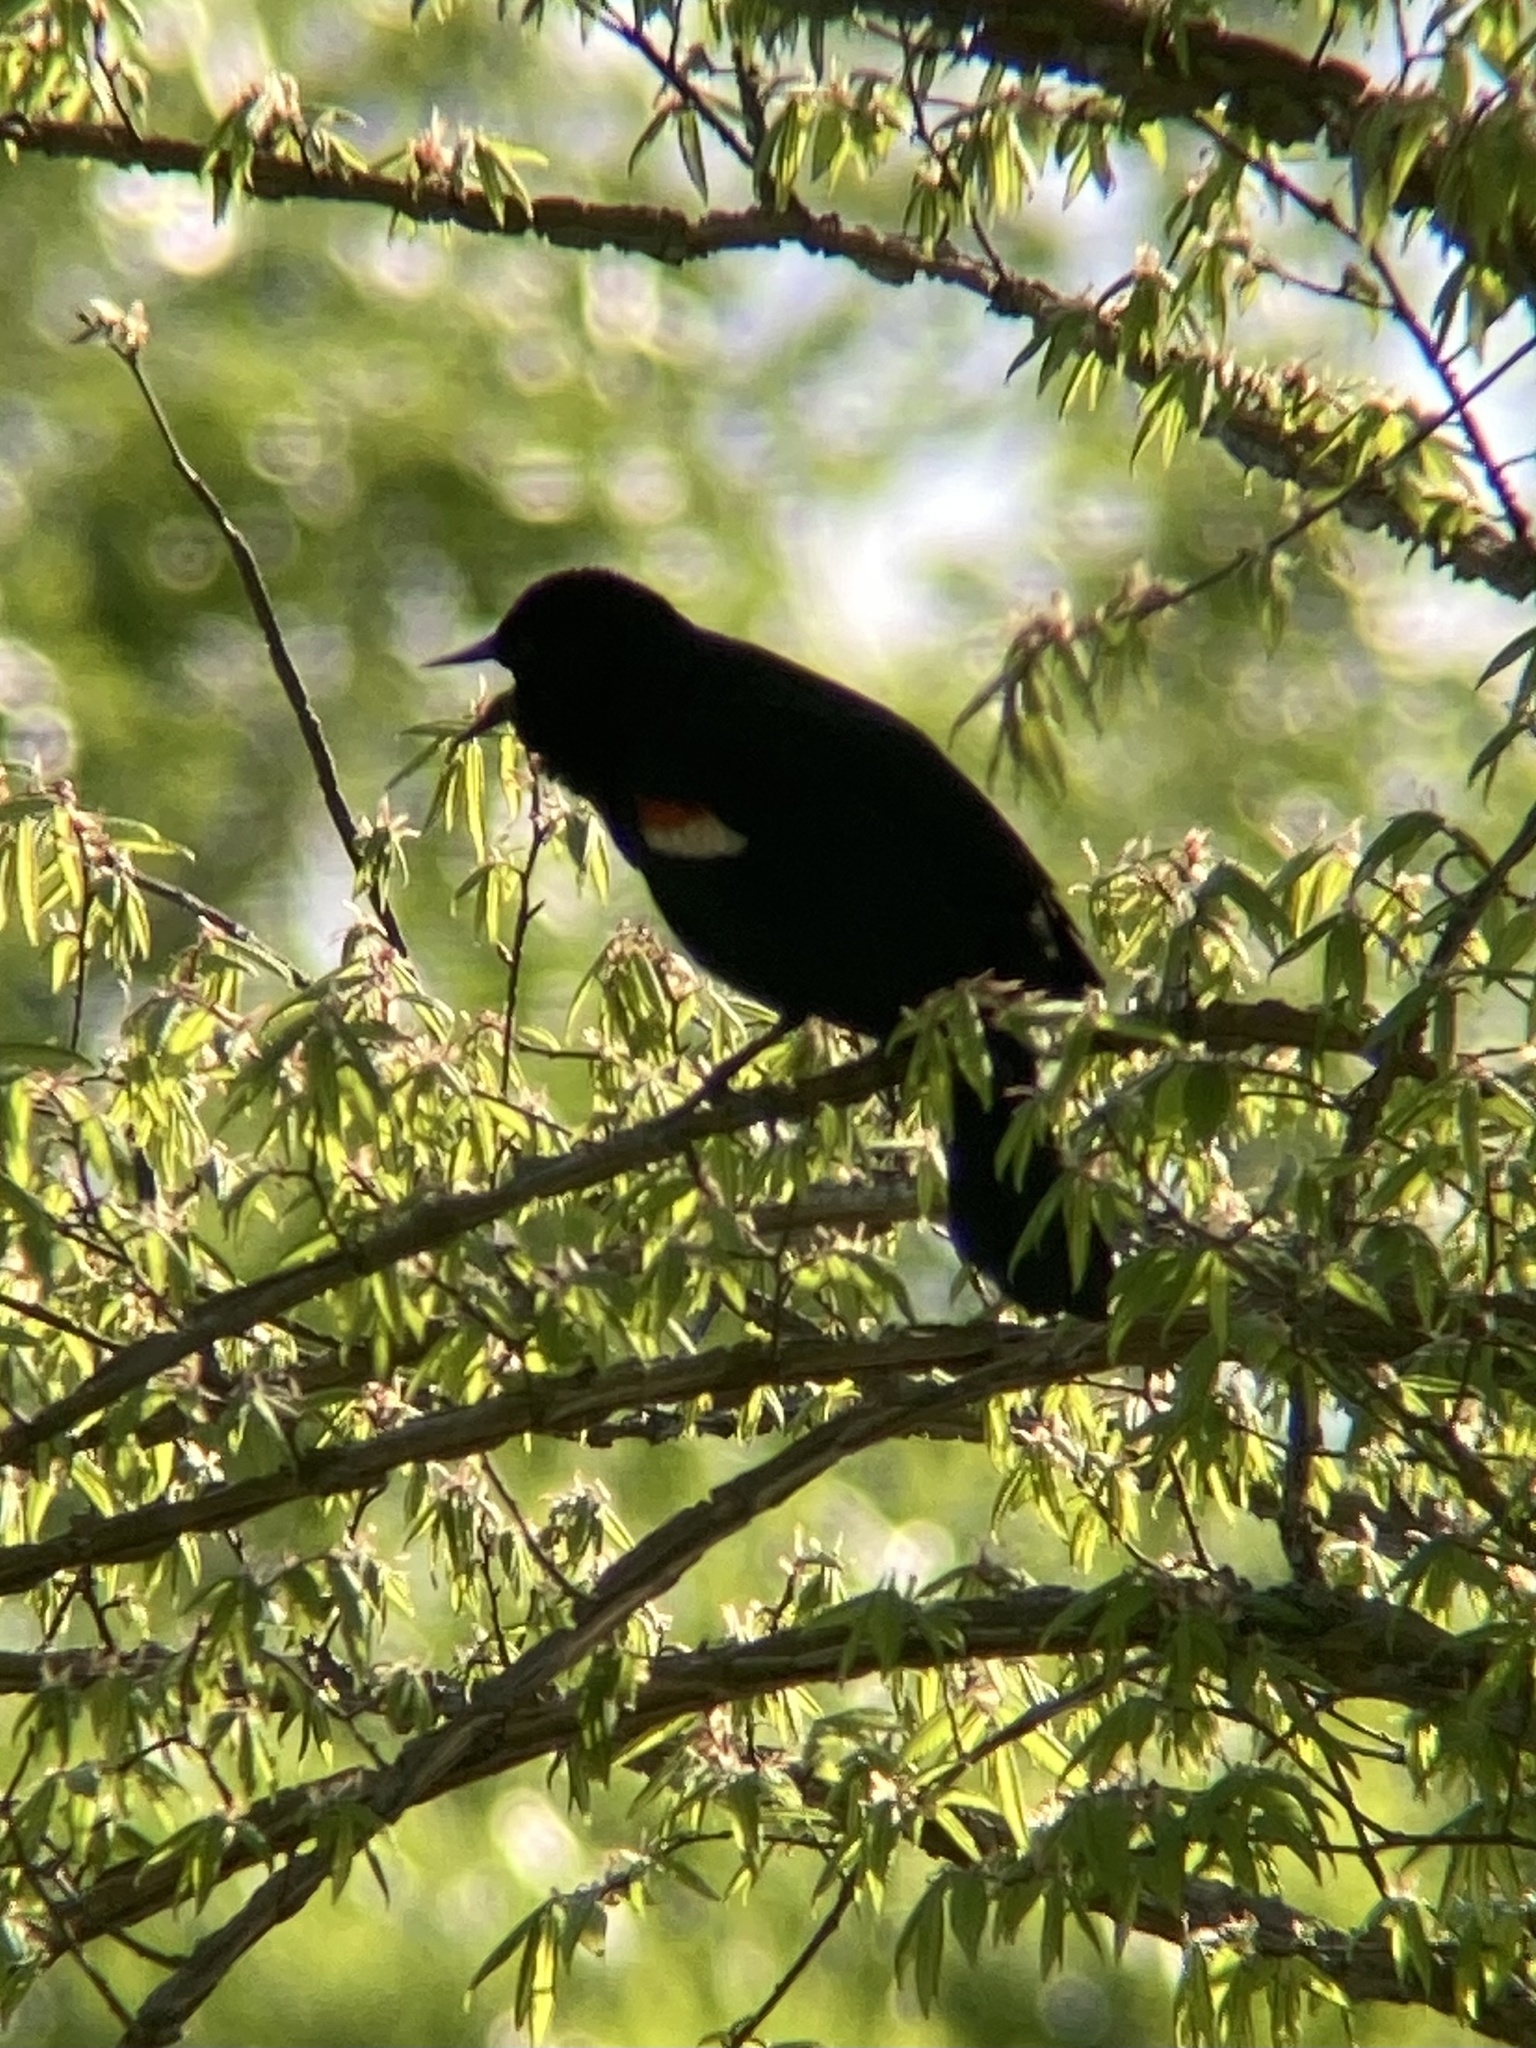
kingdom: Animalia
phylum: Chordata
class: Aves
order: Passeriformes
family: Icteridae
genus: Agelaius
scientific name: Agelaius phoeniceus
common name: Red-winged blackbird
